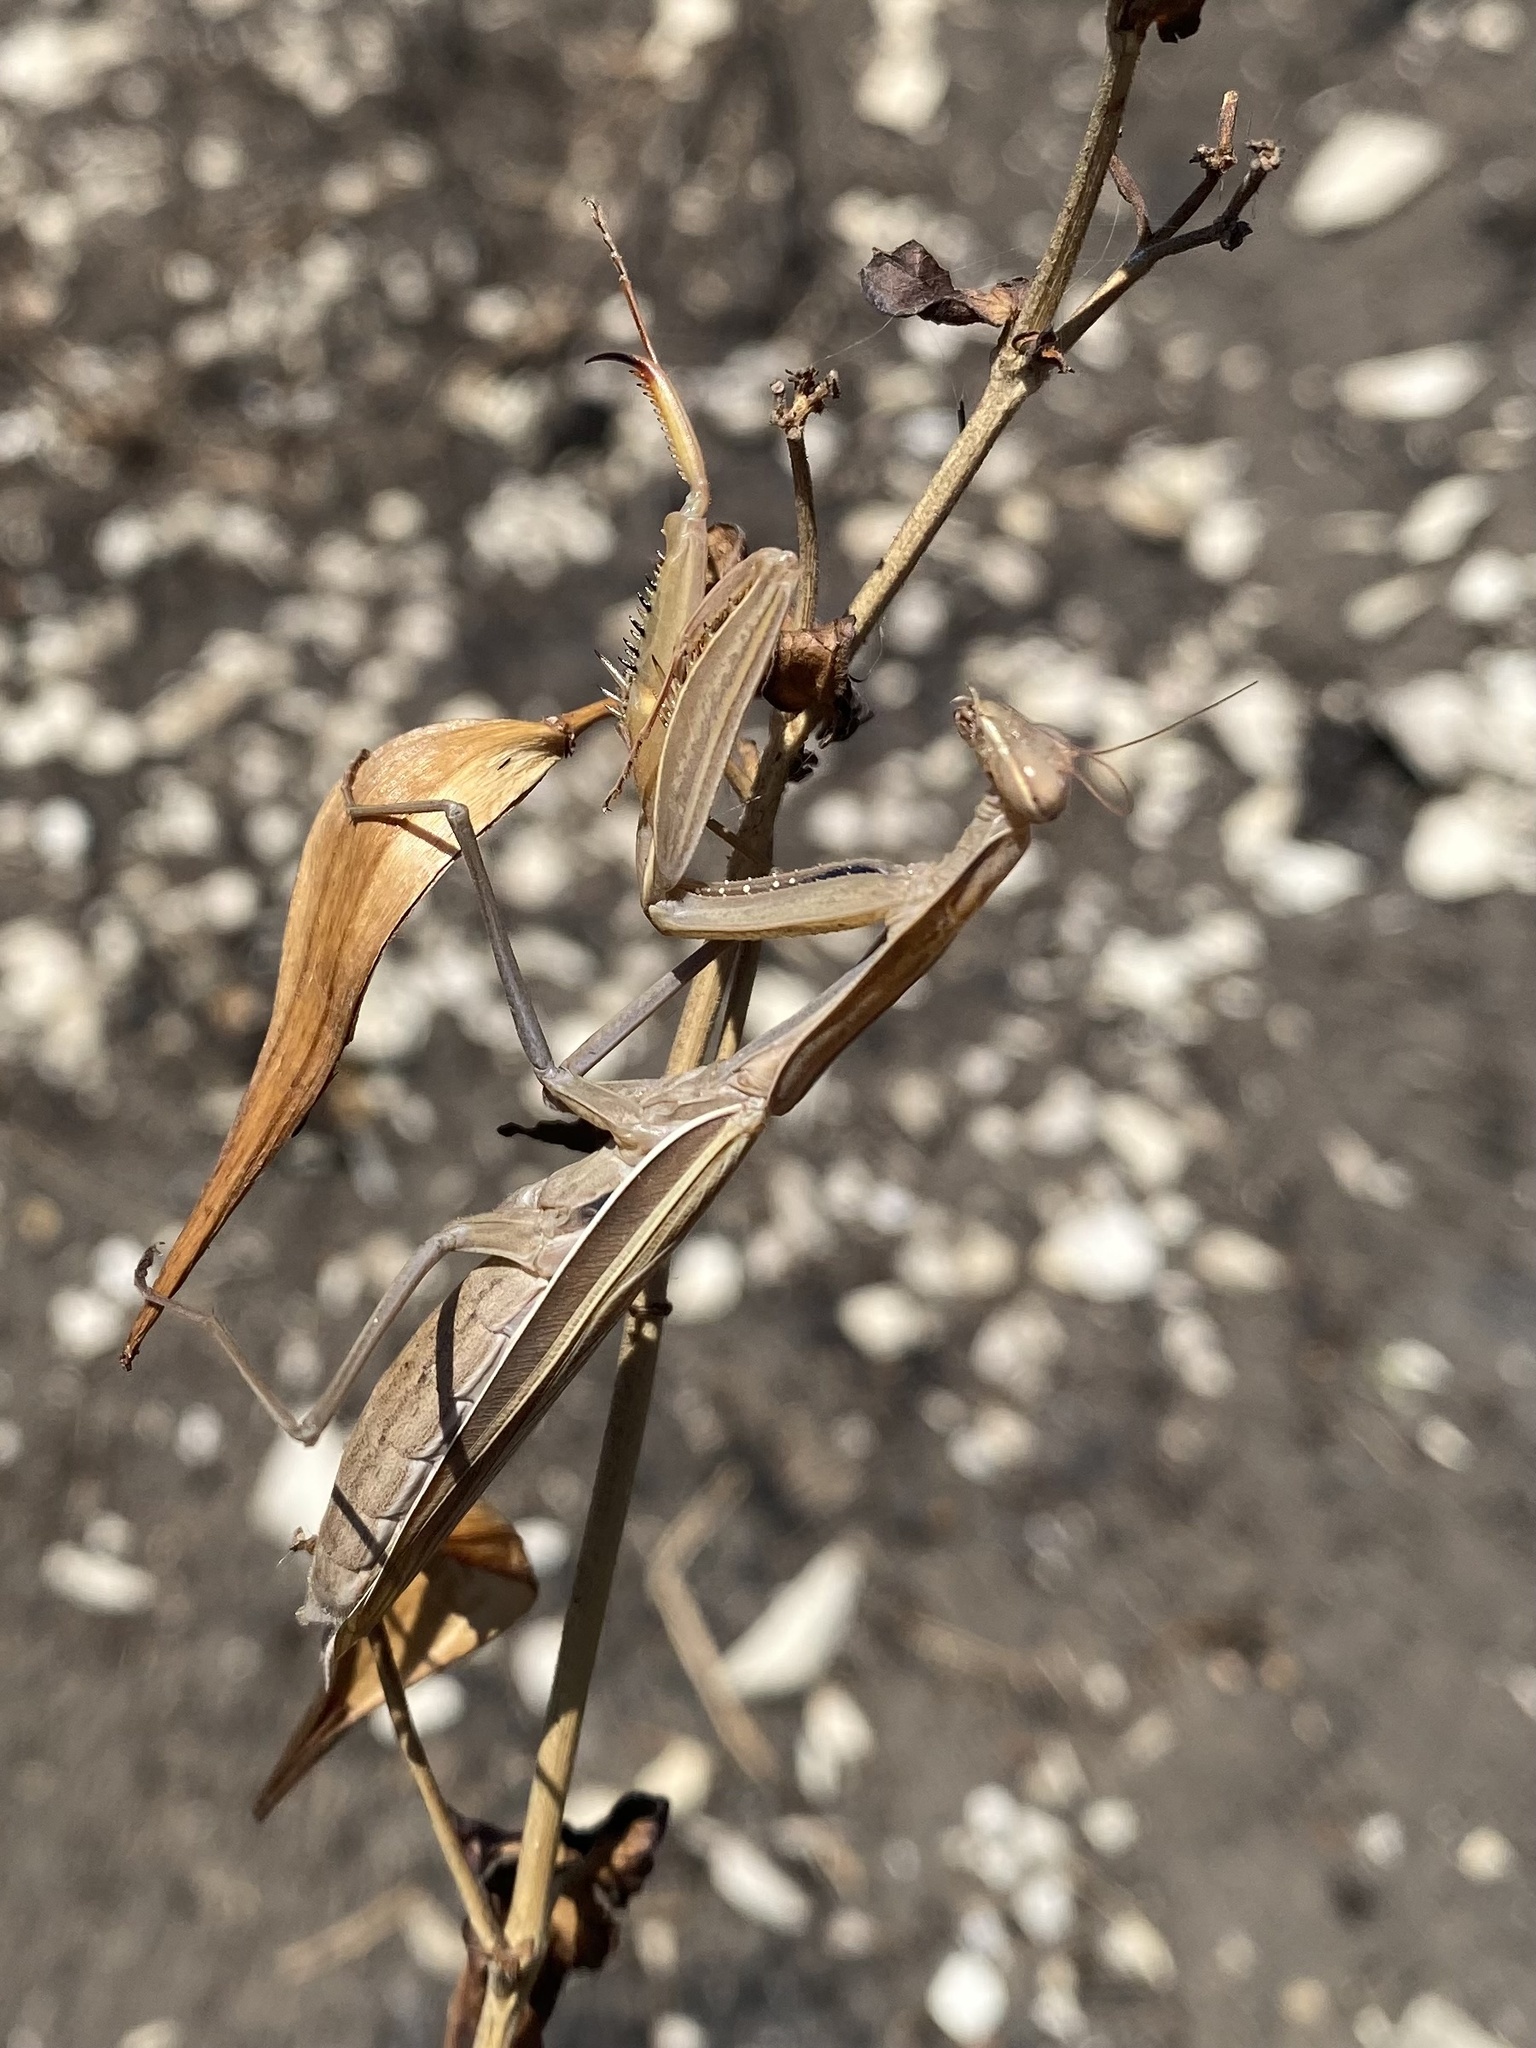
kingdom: Animalia
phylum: Arthropoda
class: Insecta
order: Mantodea
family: Mantidae
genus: Mantis
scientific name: Mantis religiosa
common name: Praying mantis
